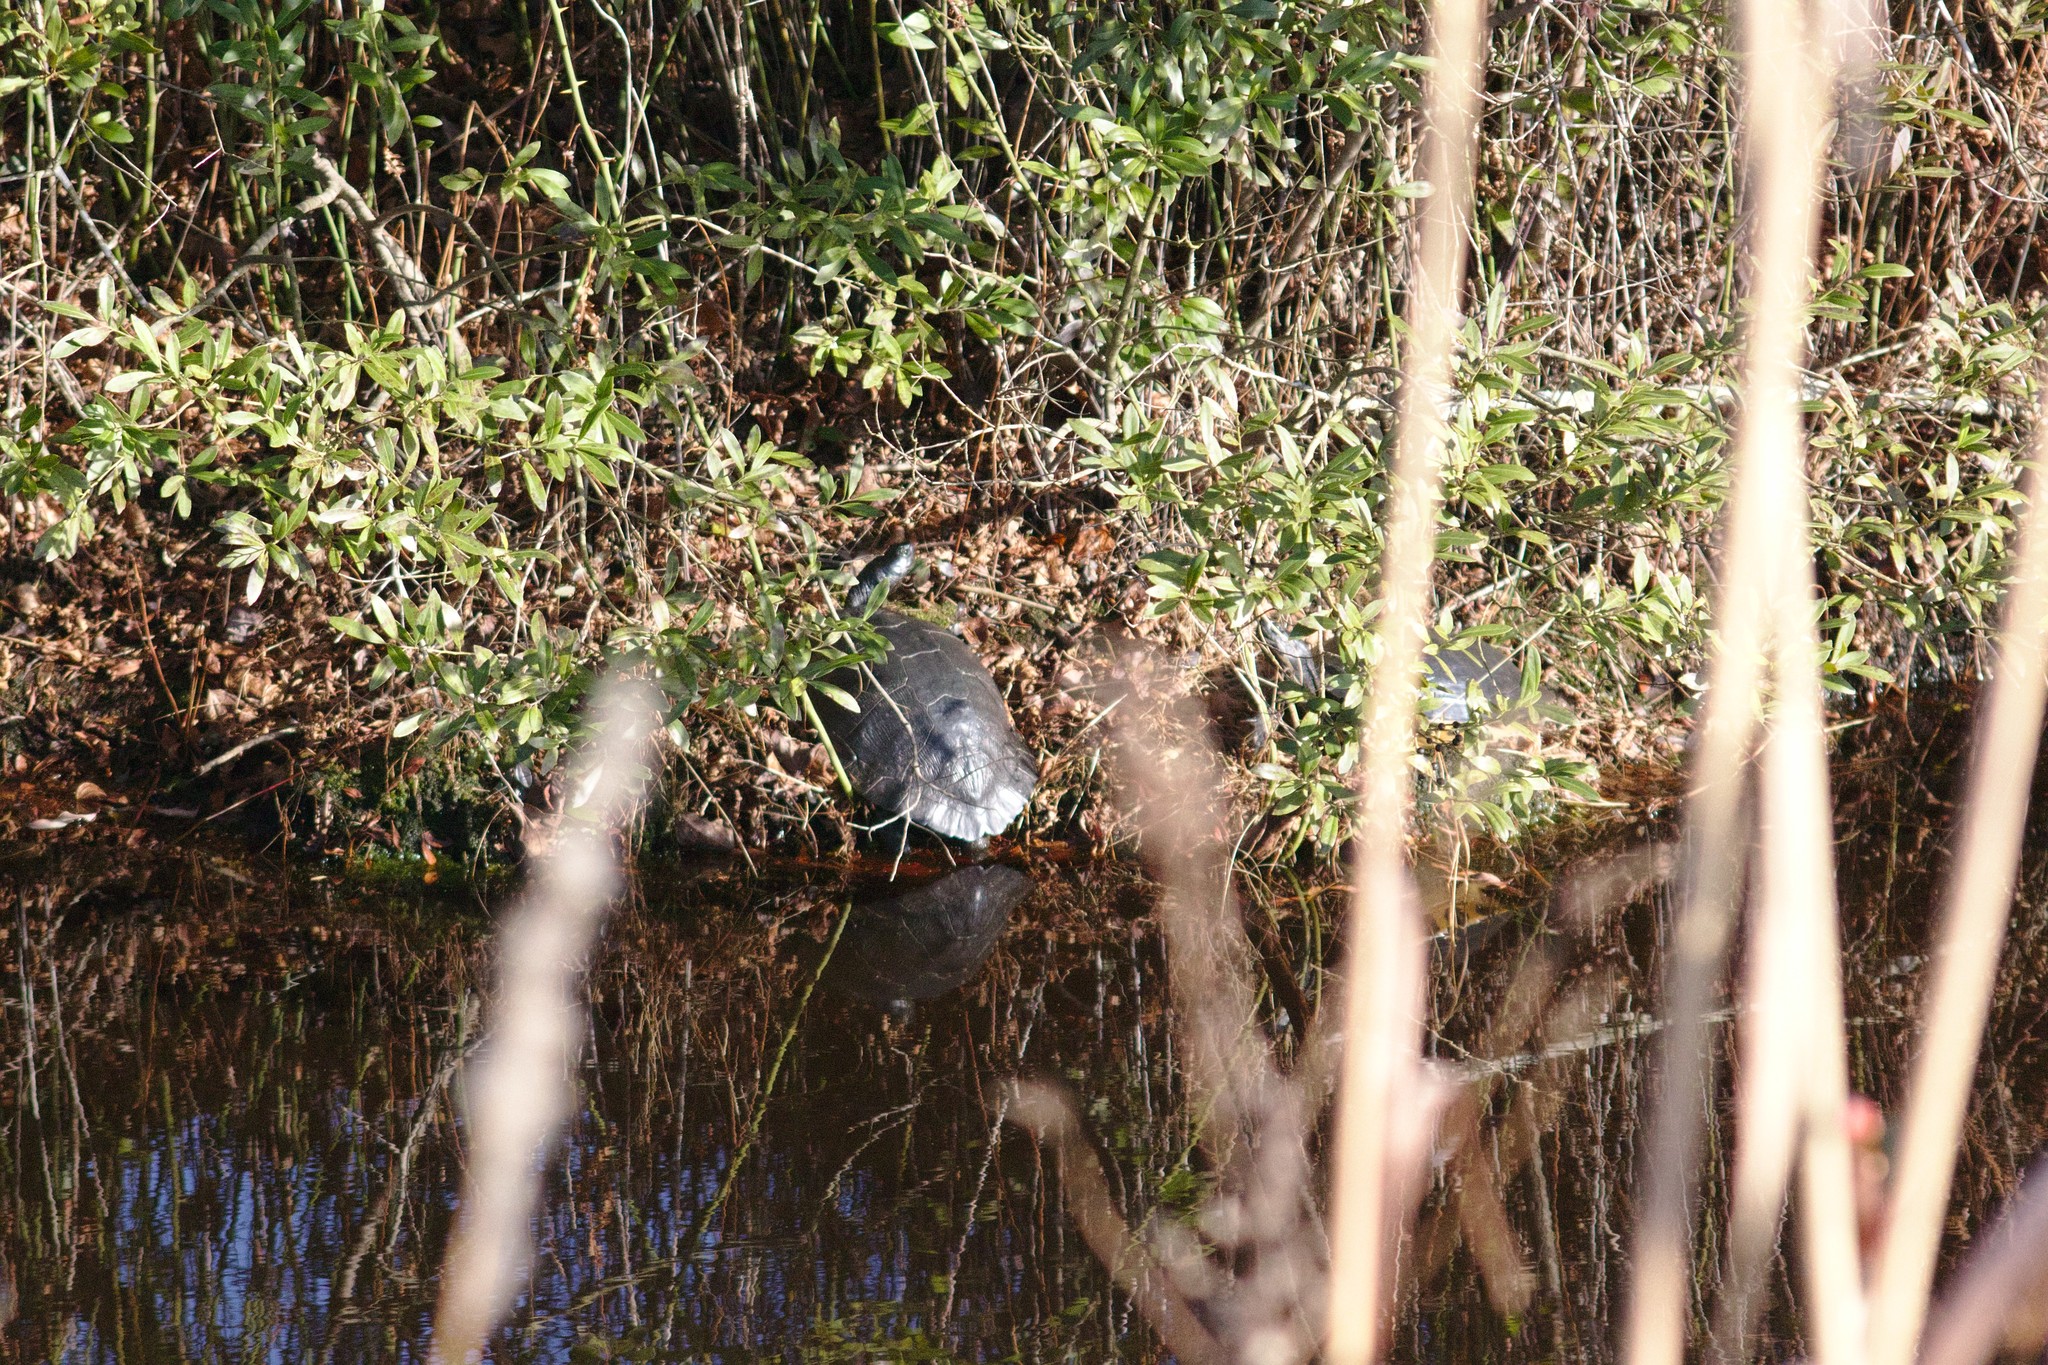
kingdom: Animalia
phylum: Chordata
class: Testudines
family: Emydidae
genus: Pseudemys
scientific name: Pseudemys rubriventris
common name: American red-bellied turtle
